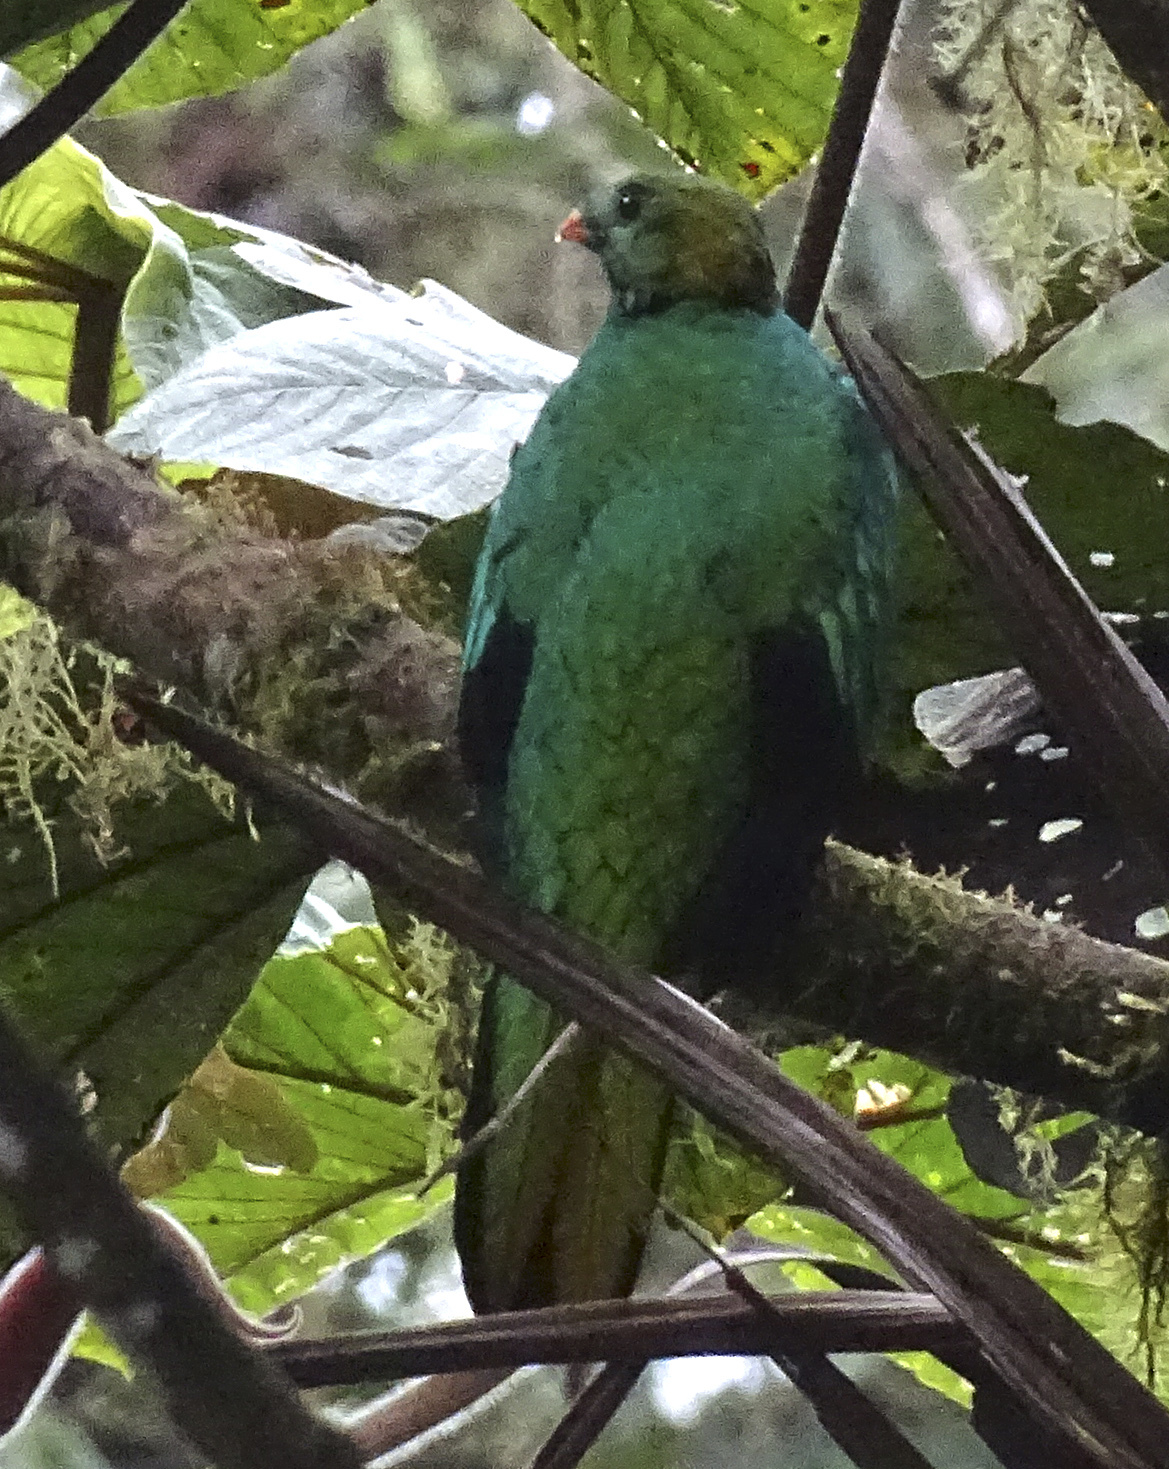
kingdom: Animalia
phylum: Chordata
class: Aves
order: Trogoniformes
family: Trogonidae
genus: Pharomachrus
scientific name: Pharomachrus auriceps
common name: Golden-headed quetzal
